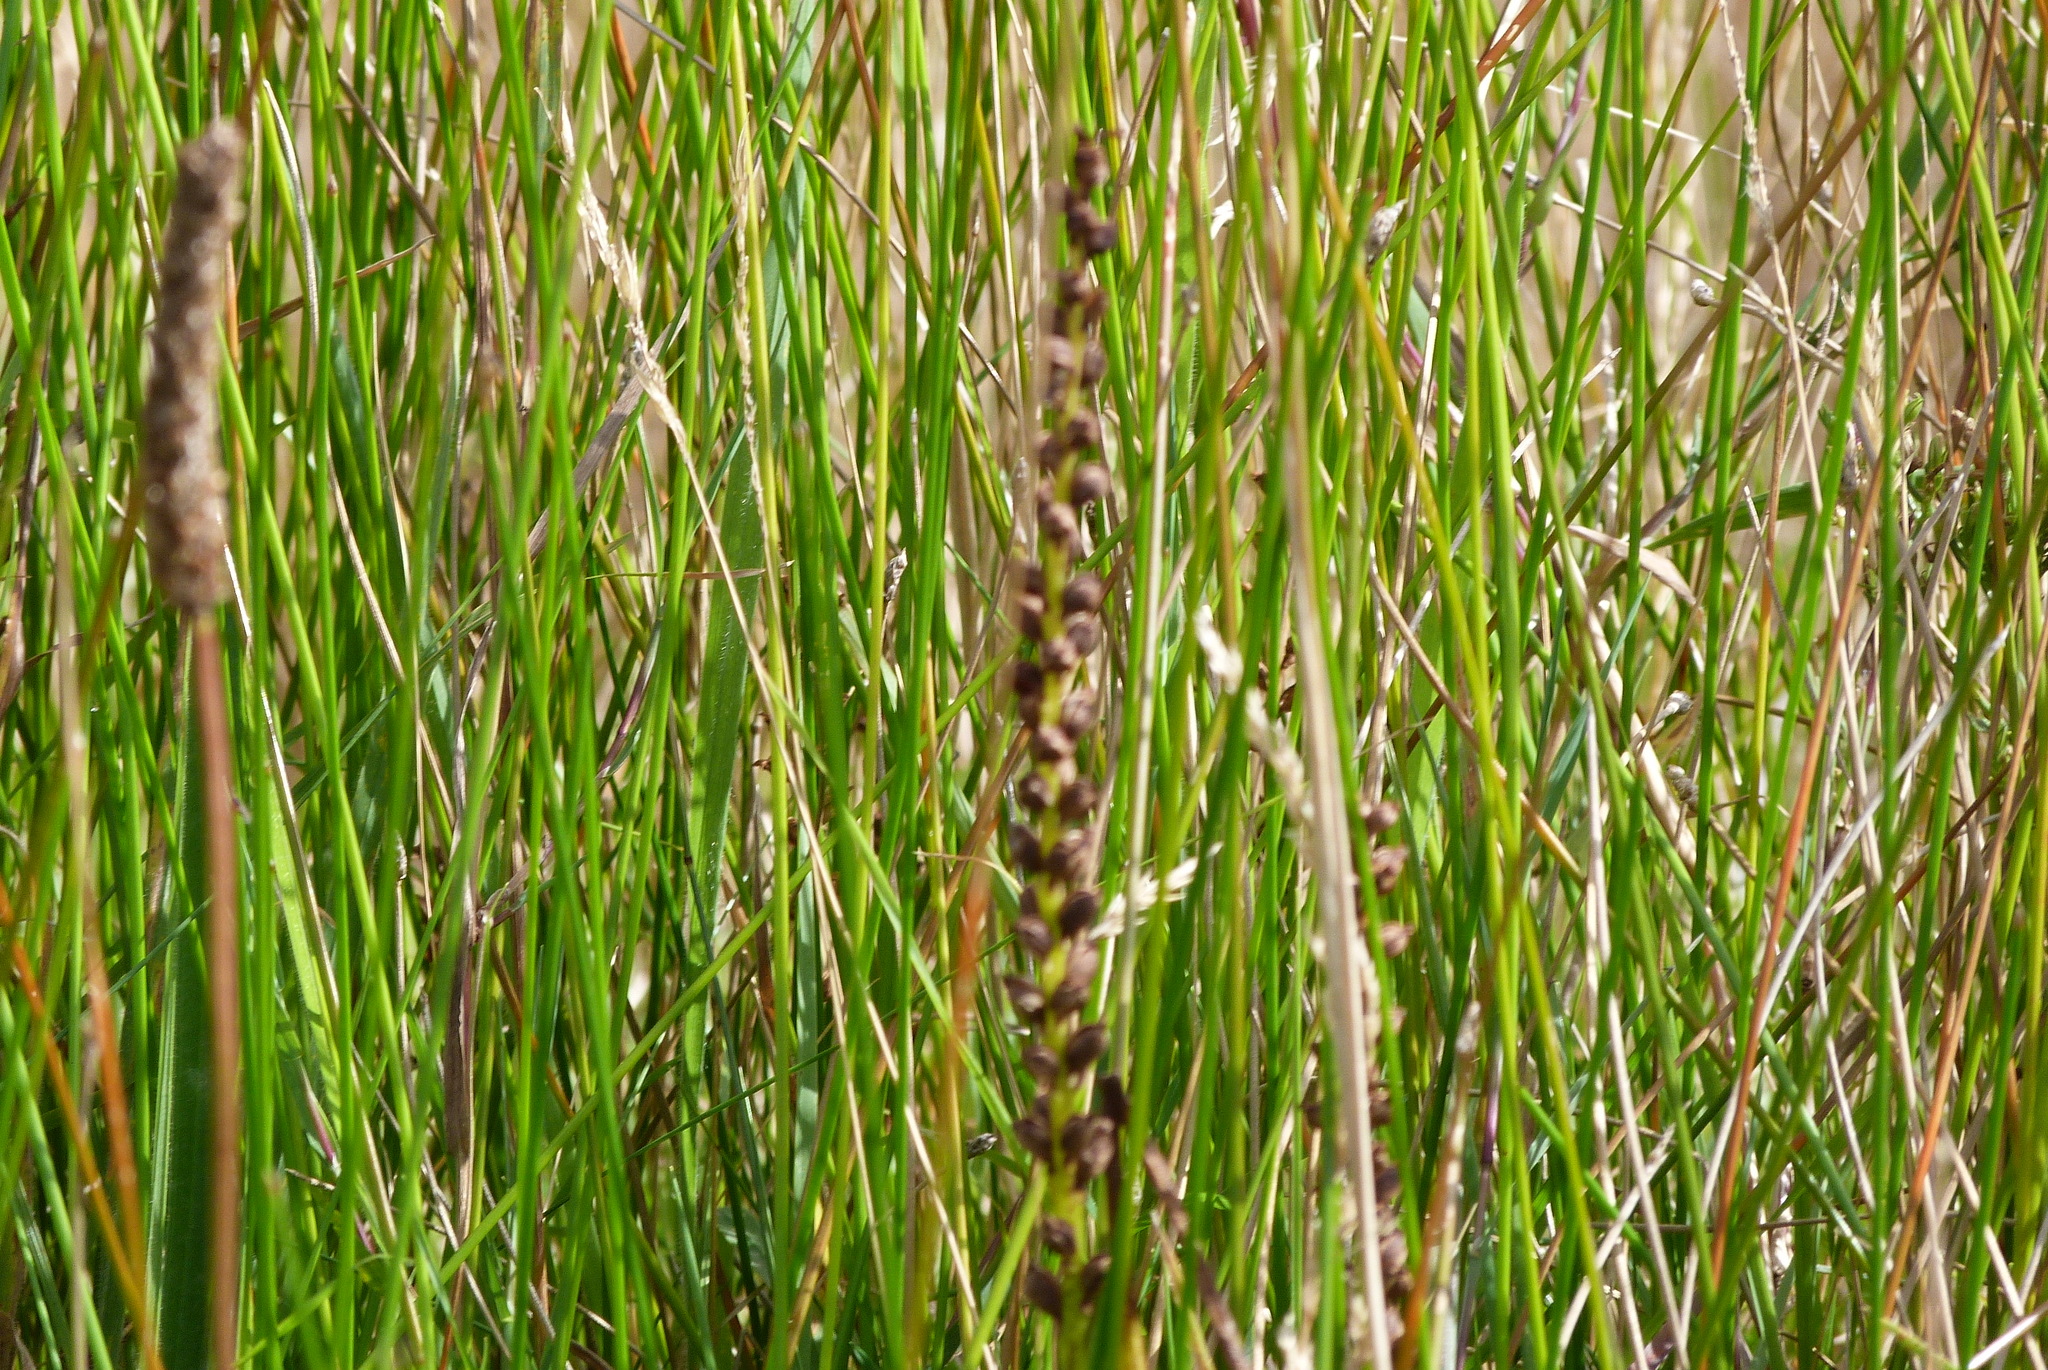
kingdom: Plantae
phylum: Tracheophyta
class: Liliopsida
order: Asparagales
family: Orchidaceae
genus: Microtis
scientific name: Microtis unifolia
